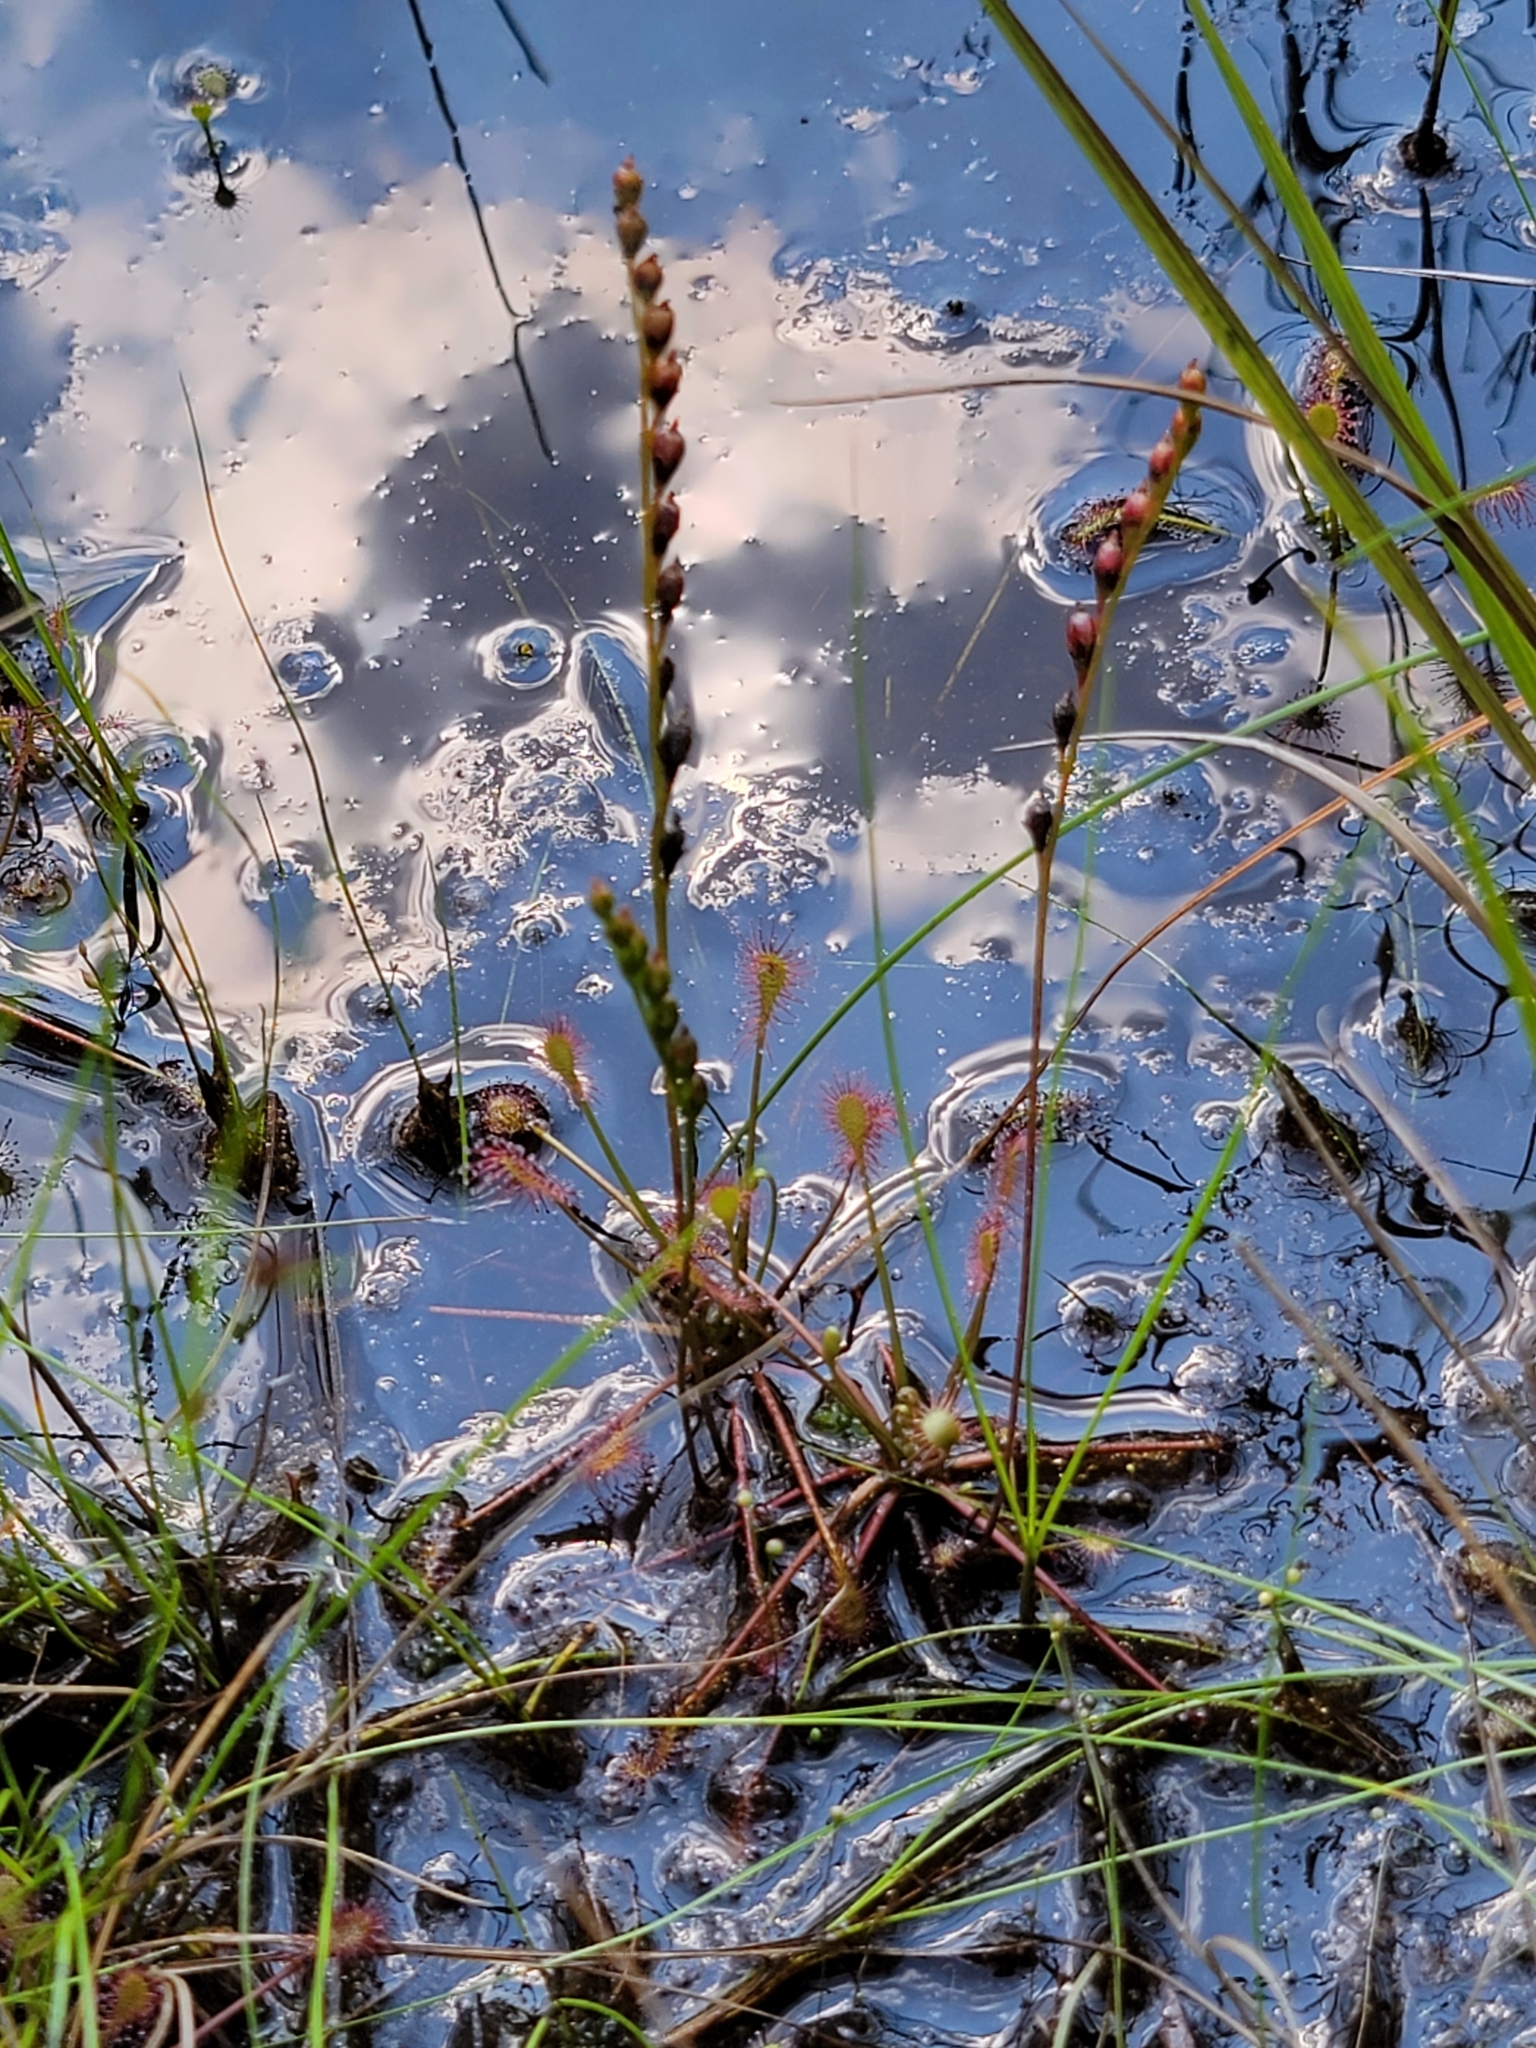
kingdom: Plantae
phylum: Tracheophyta
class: Magnoliopsida
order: Caryophyllales
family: Droseraceae
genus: Drosera
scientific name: Drosera intermedia
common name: Oblong-leaved sundew
